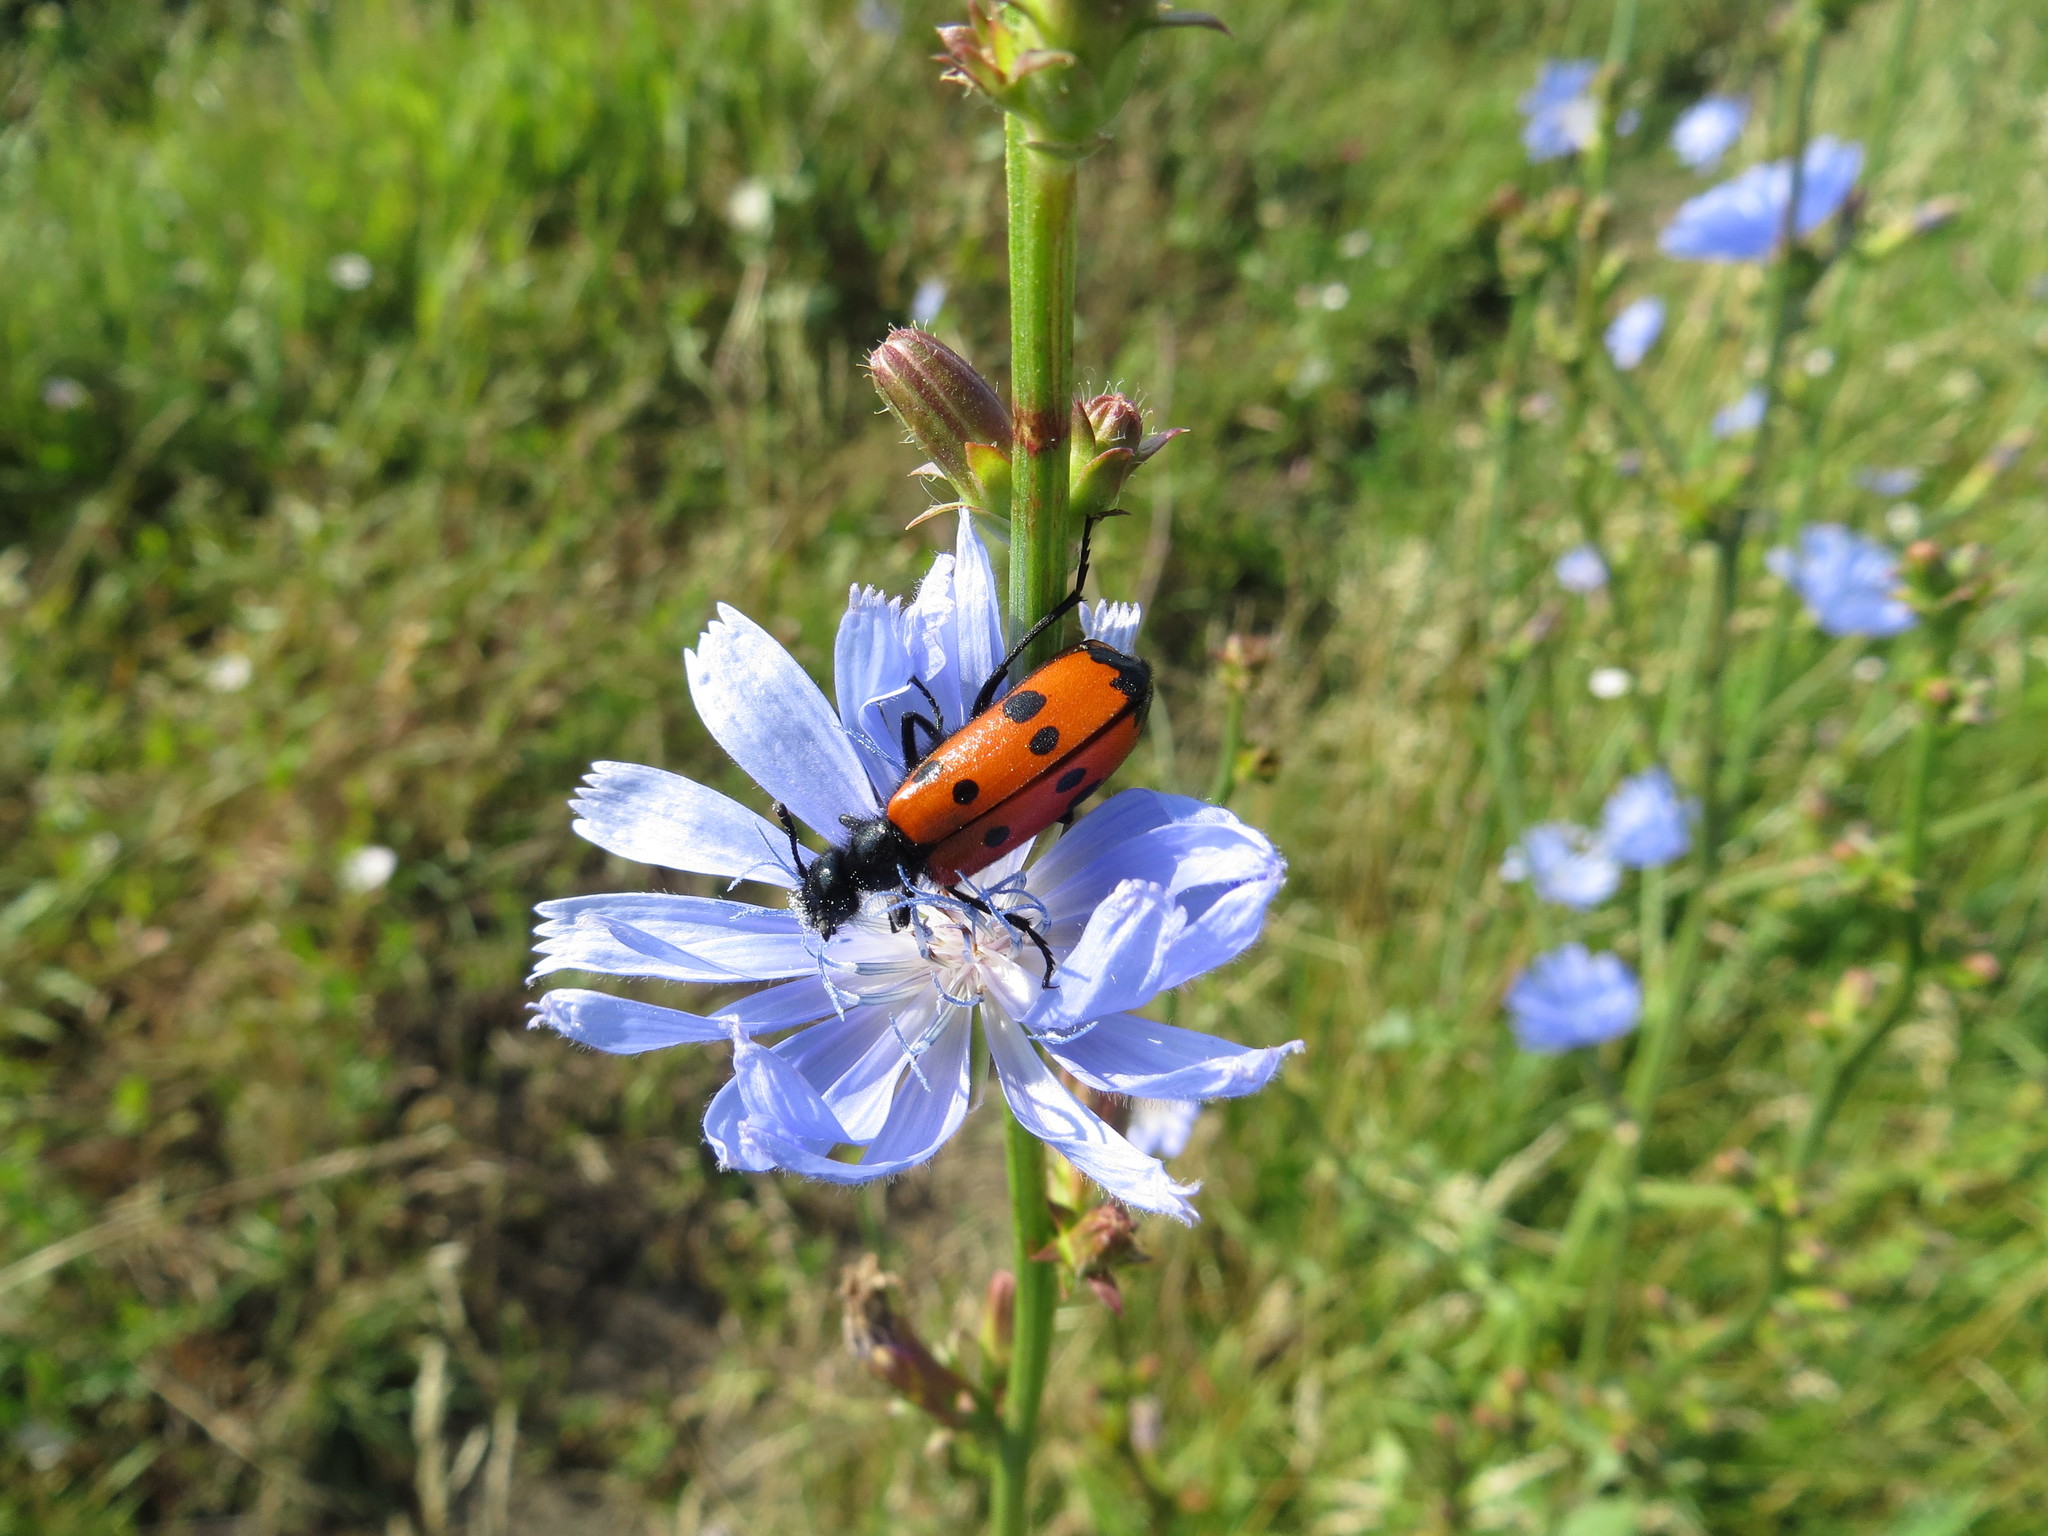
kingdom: Animalia
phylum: Arthropoda
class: Insecta
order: Coleoptera
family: Meloidae
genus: Mylabris
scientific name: Mylabris quadripunctata
